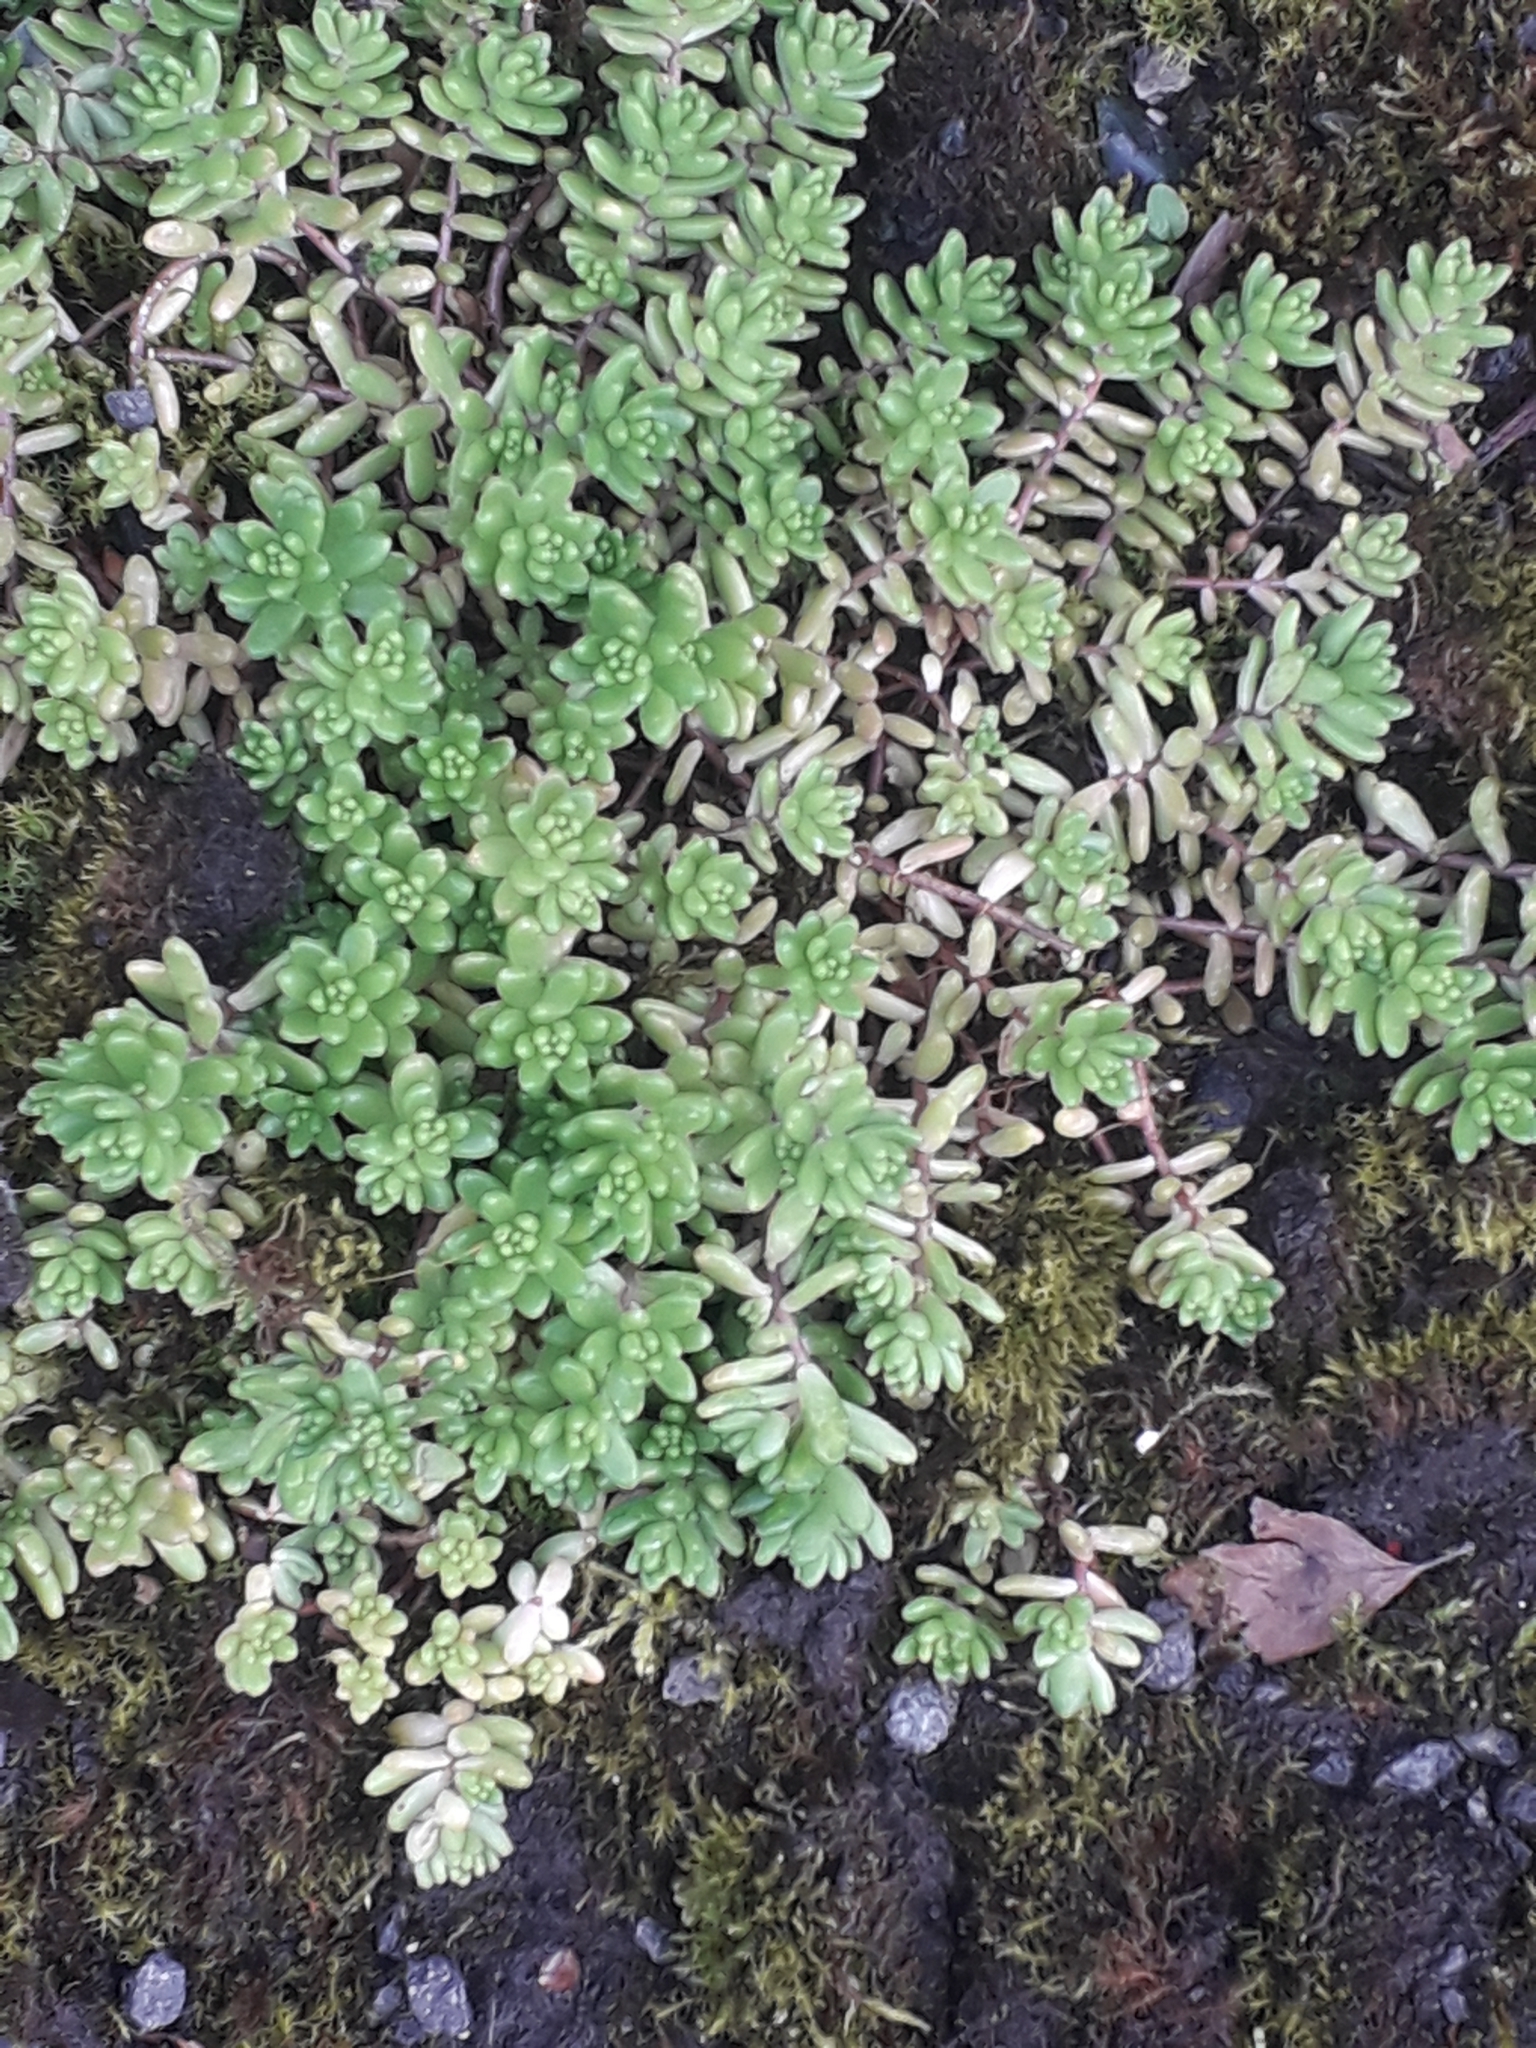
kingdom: Plantae
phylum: Tracheophyta
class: Magnoliopsida
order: Saxifragales
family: Crassulaceae
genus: Sedum
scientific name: Sedum album
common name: White stonecrop
